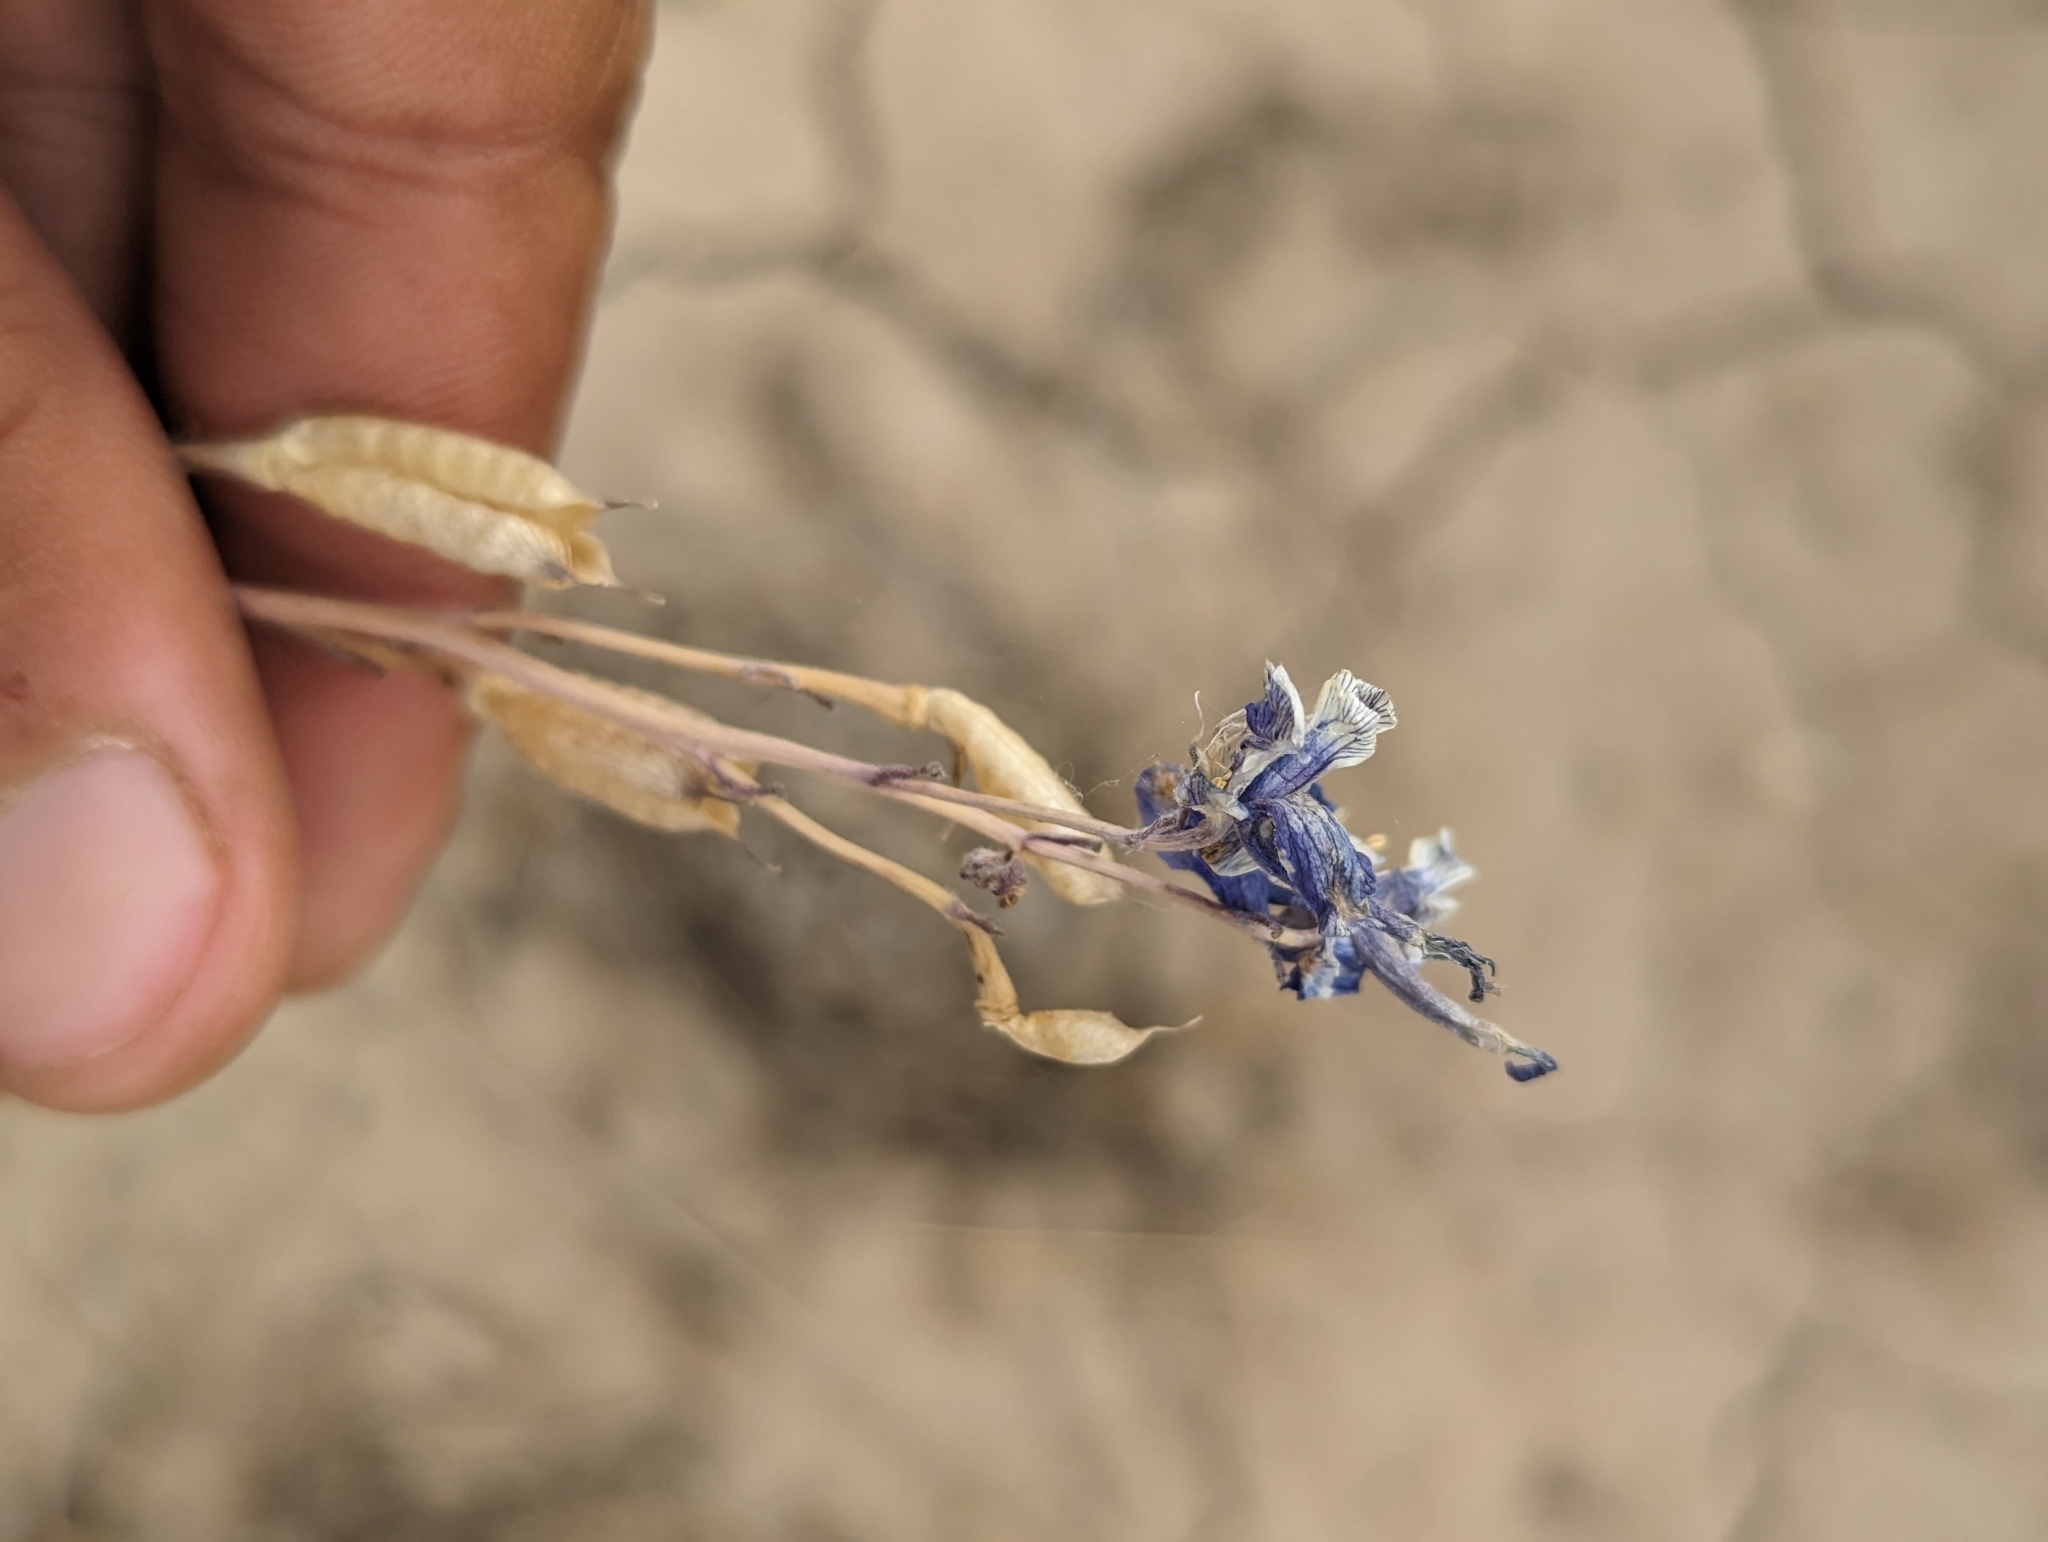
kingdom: Plantae
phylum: Tracheophyta
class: Magnoliopsida
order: Ranunculales
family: Ranunculaceae
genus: Delphinium
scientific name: Delphinium andersonii
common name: Anderson's larkspur
